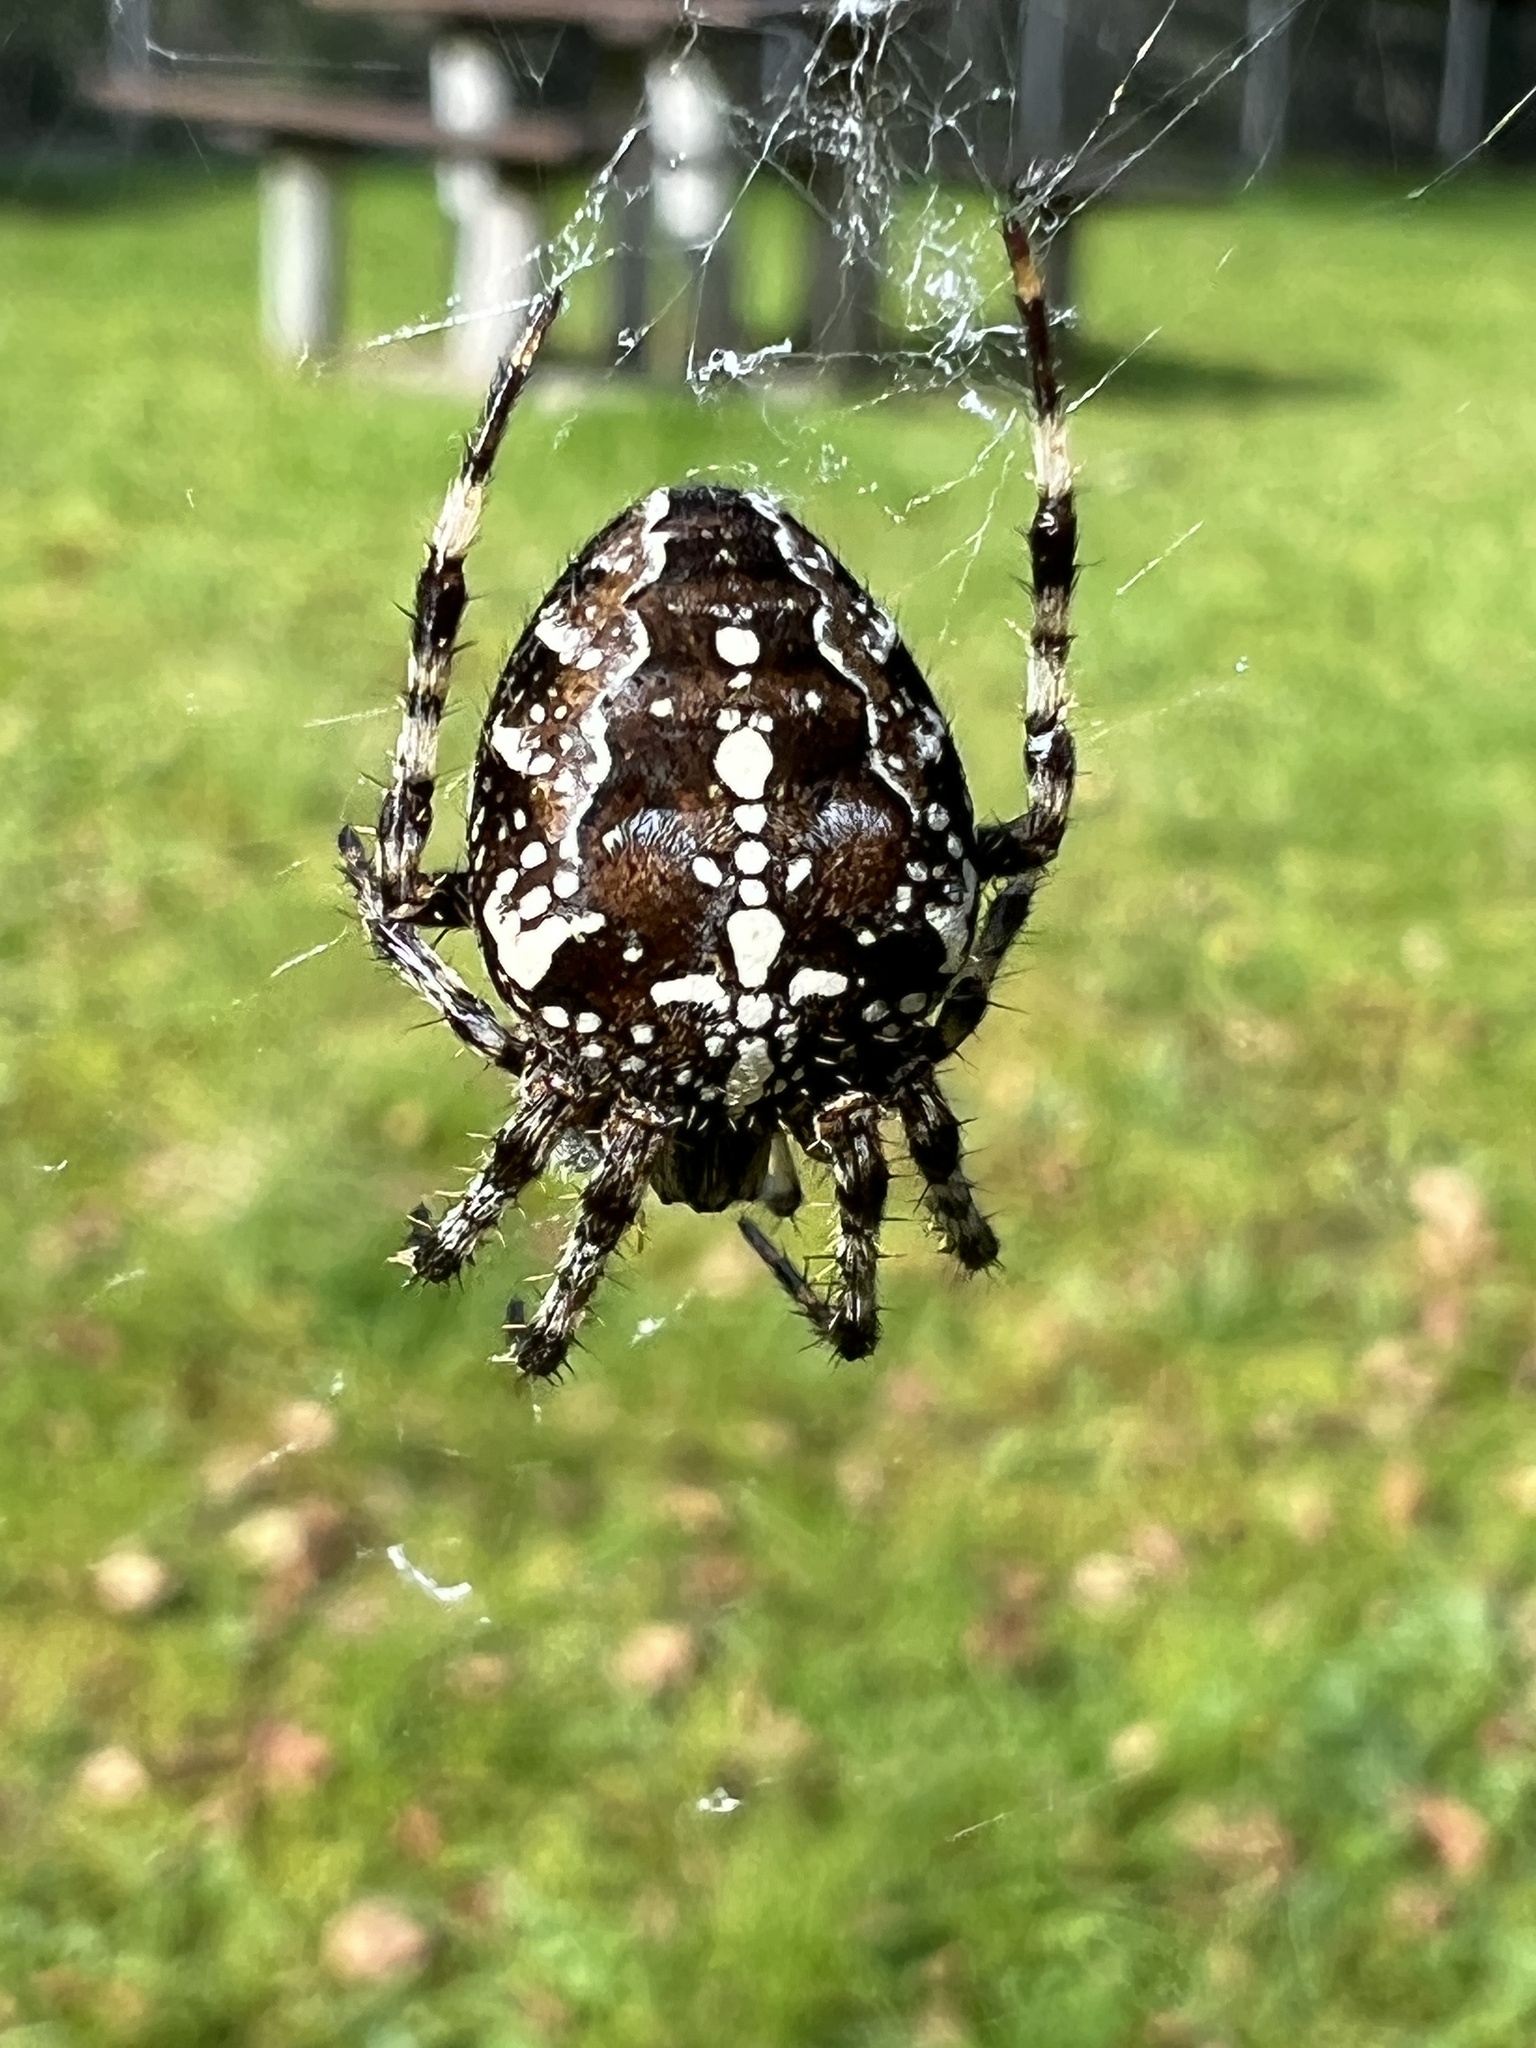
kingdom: Animalia
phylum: Arthropoda
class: Arachnida
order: Araneae
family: Araneidae
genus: Araneus
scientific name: Araneus diadematus
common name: Cross orbweaver
